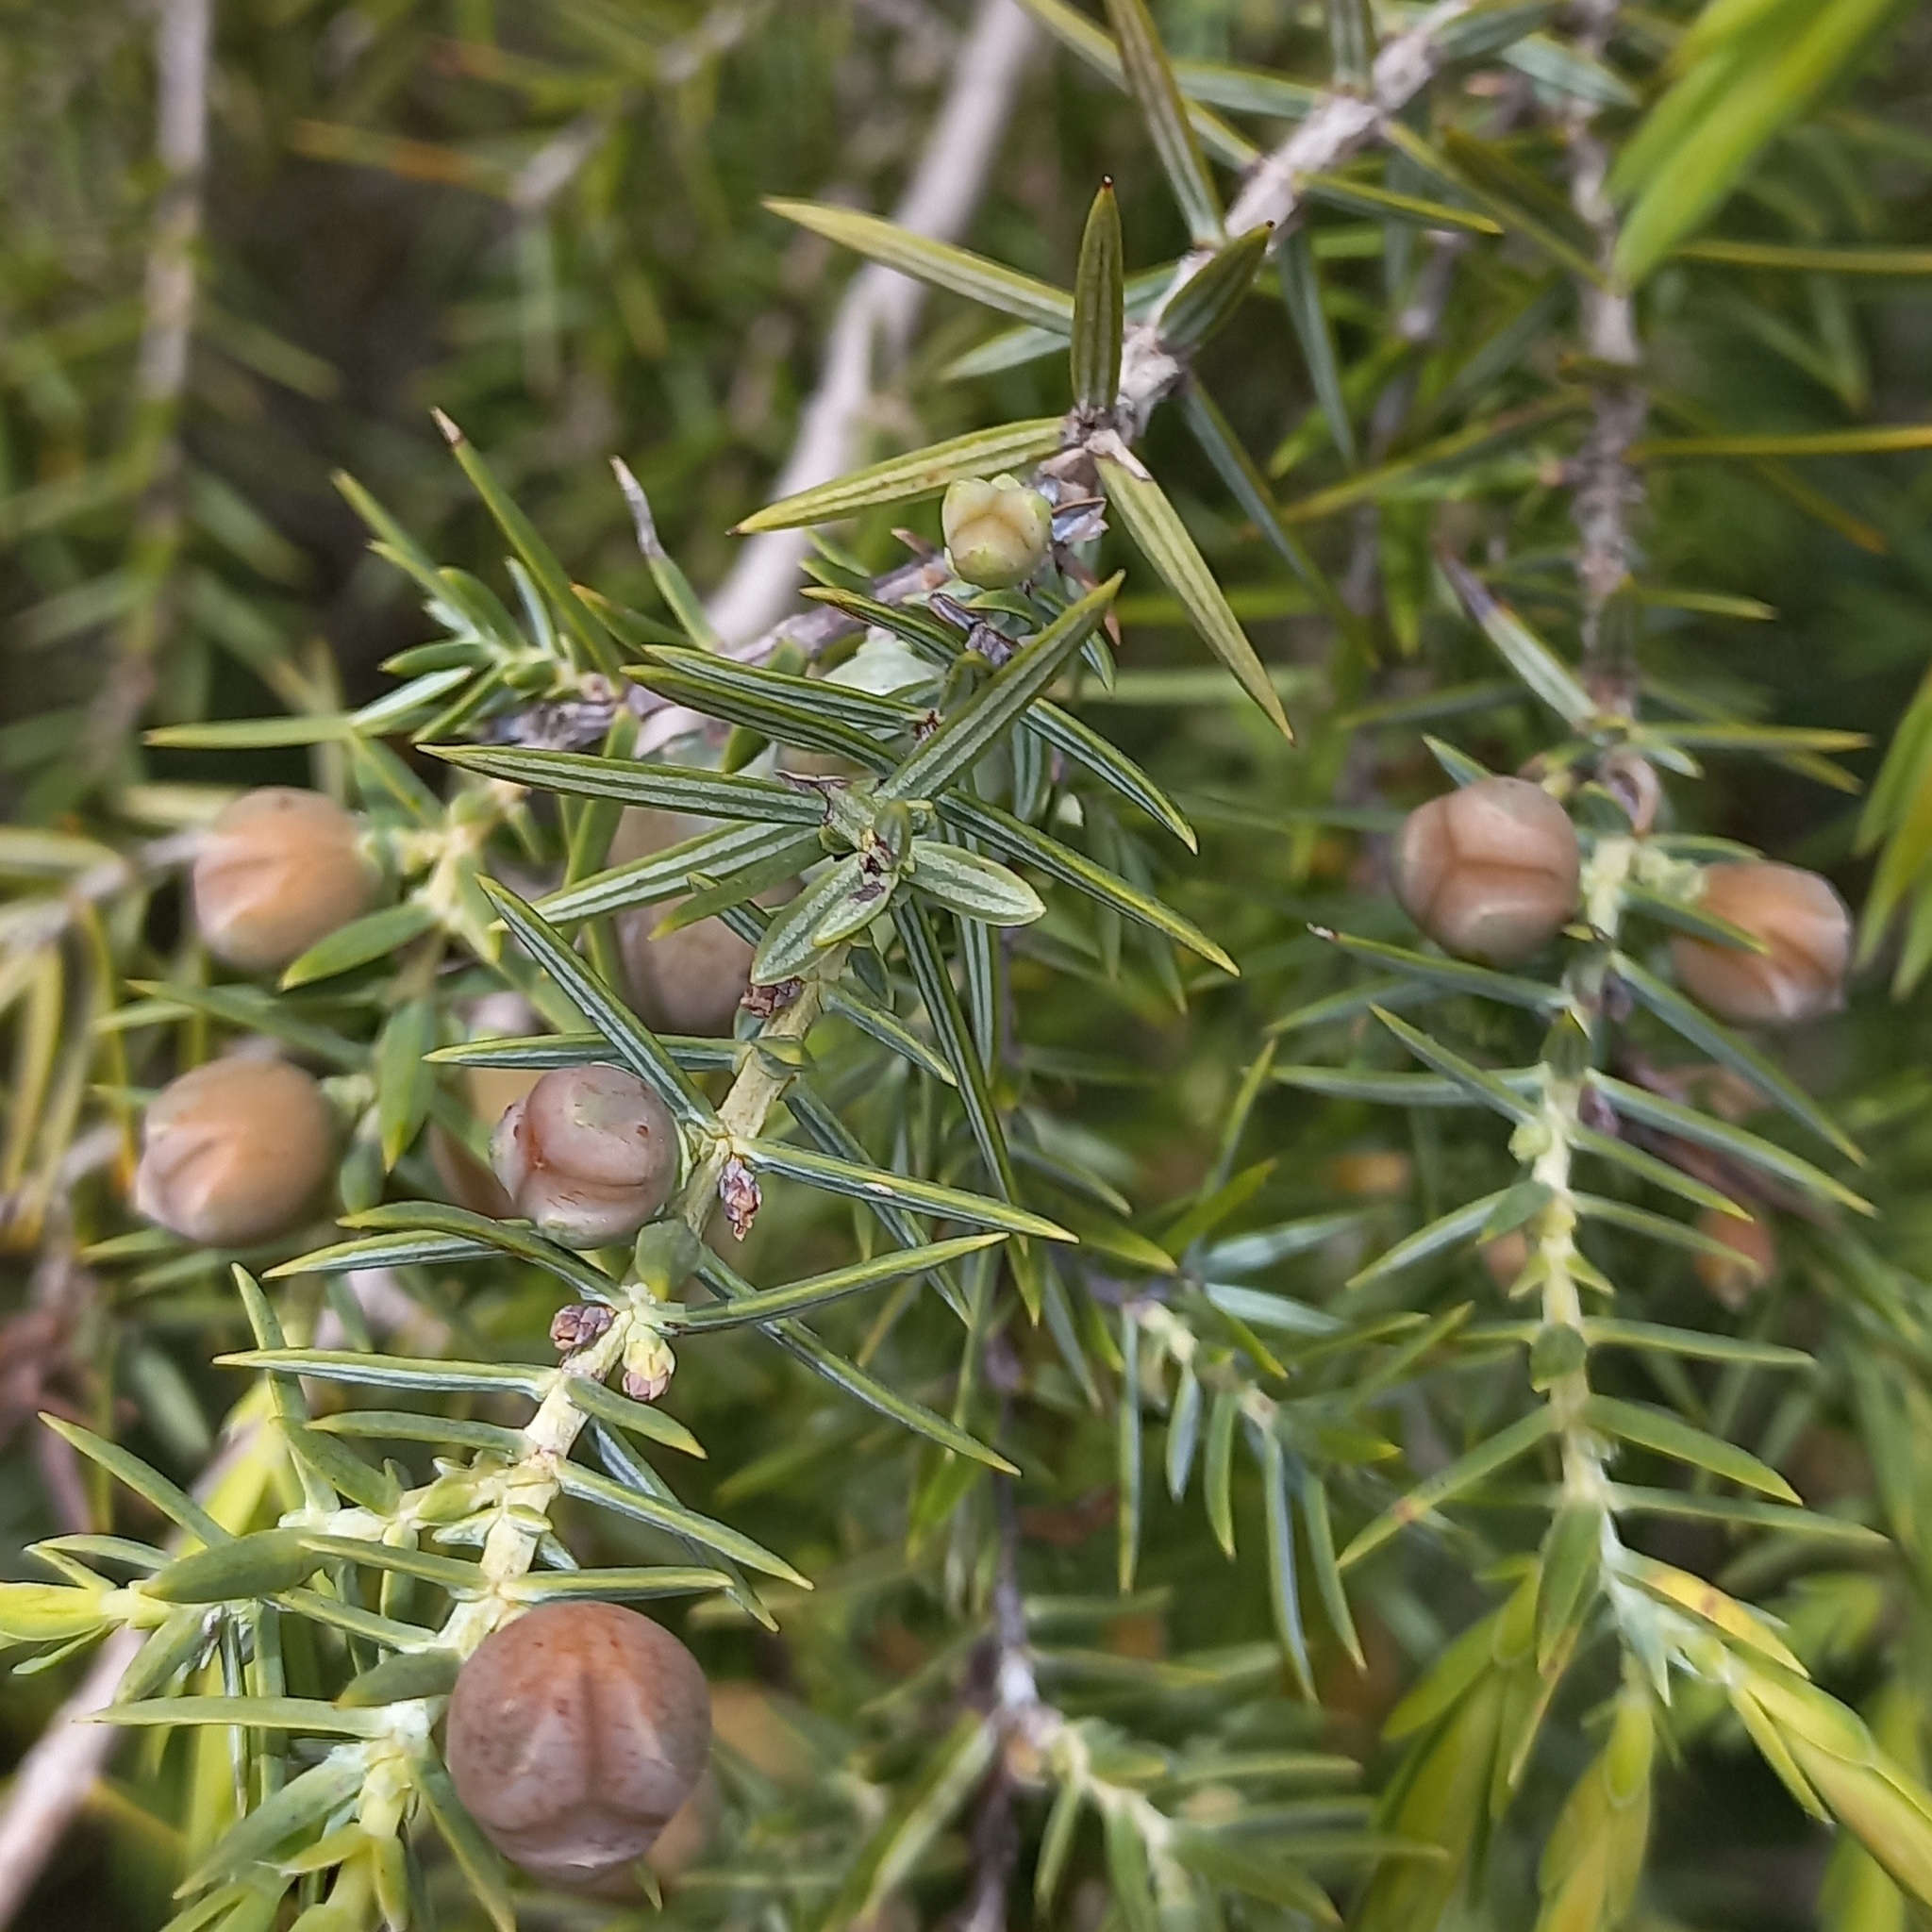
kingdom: Plantae
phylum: Tracheophyta
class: Pinopsida
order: Pinales
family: Cupressaceae
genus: Juniperus
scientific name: Juniperus oxycedrus
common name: Prickly juniper
